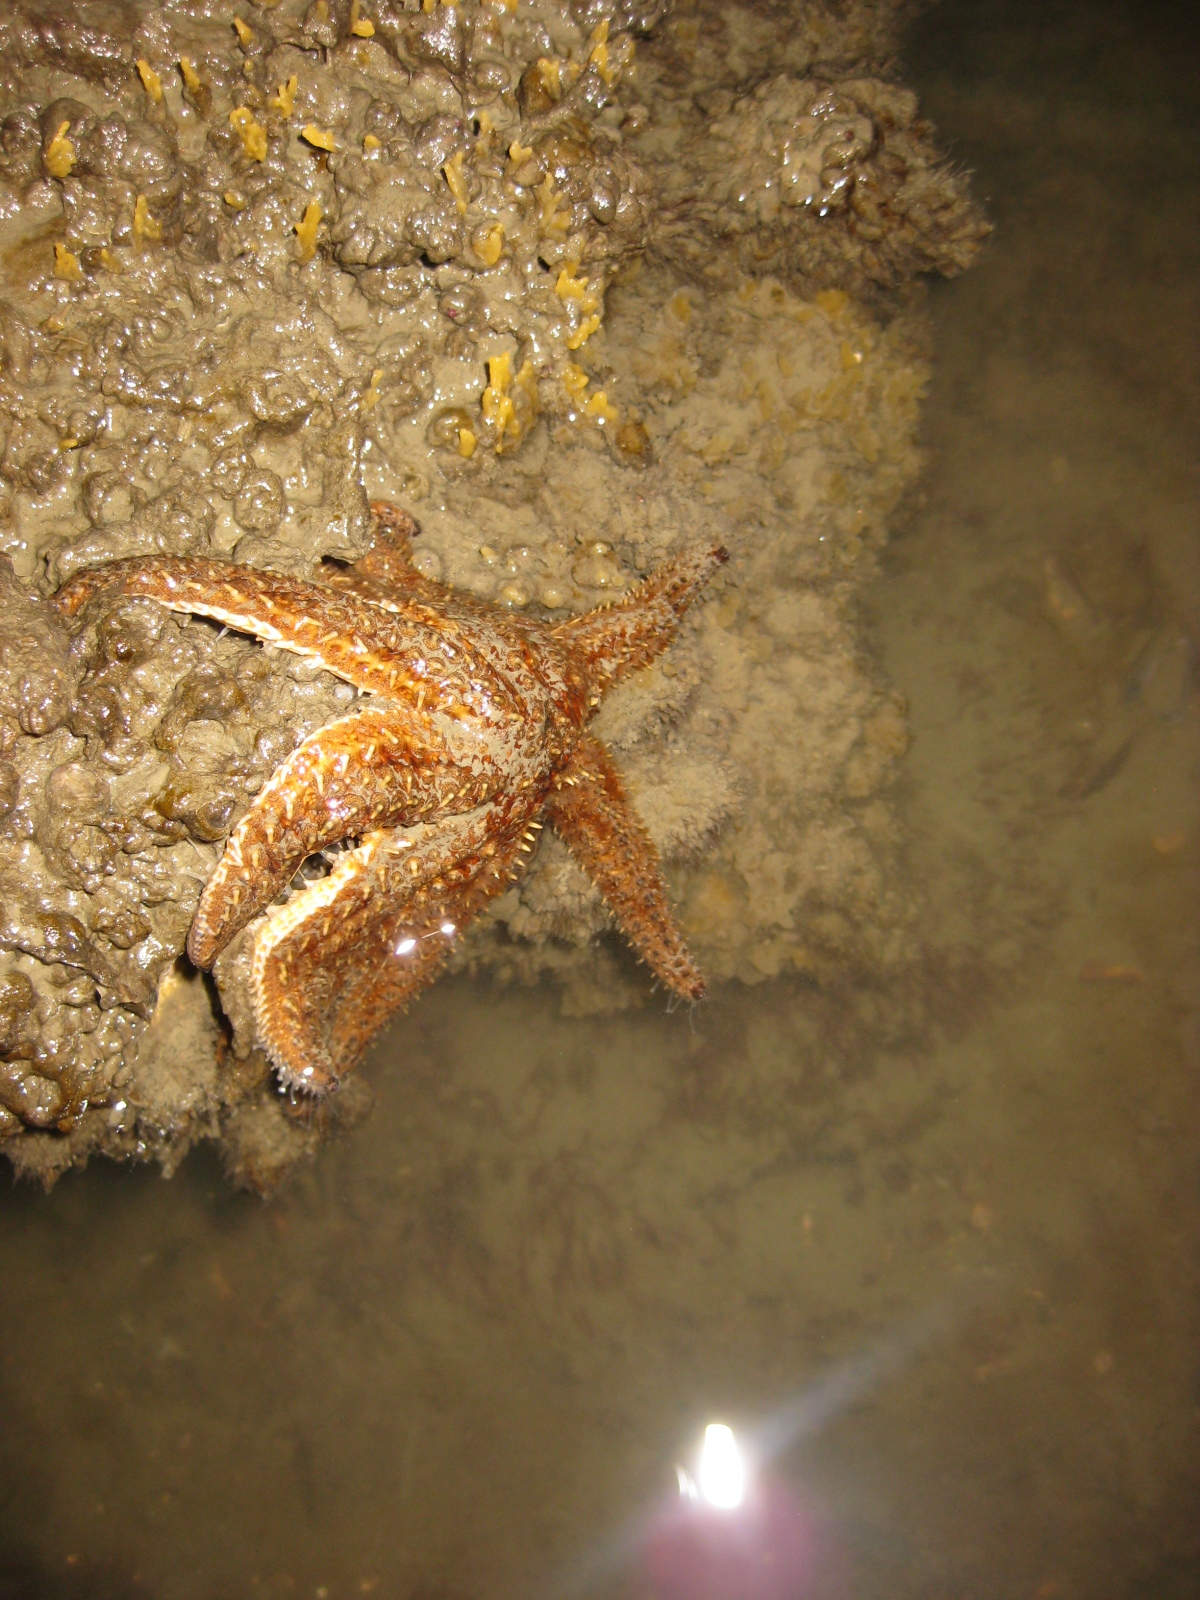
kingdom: Animalia
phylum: Echinodermata
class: Asteroidea
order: Forcipulatida
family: Asteriidae
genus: Coscinasterias
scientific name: Coscinasterias muricata
